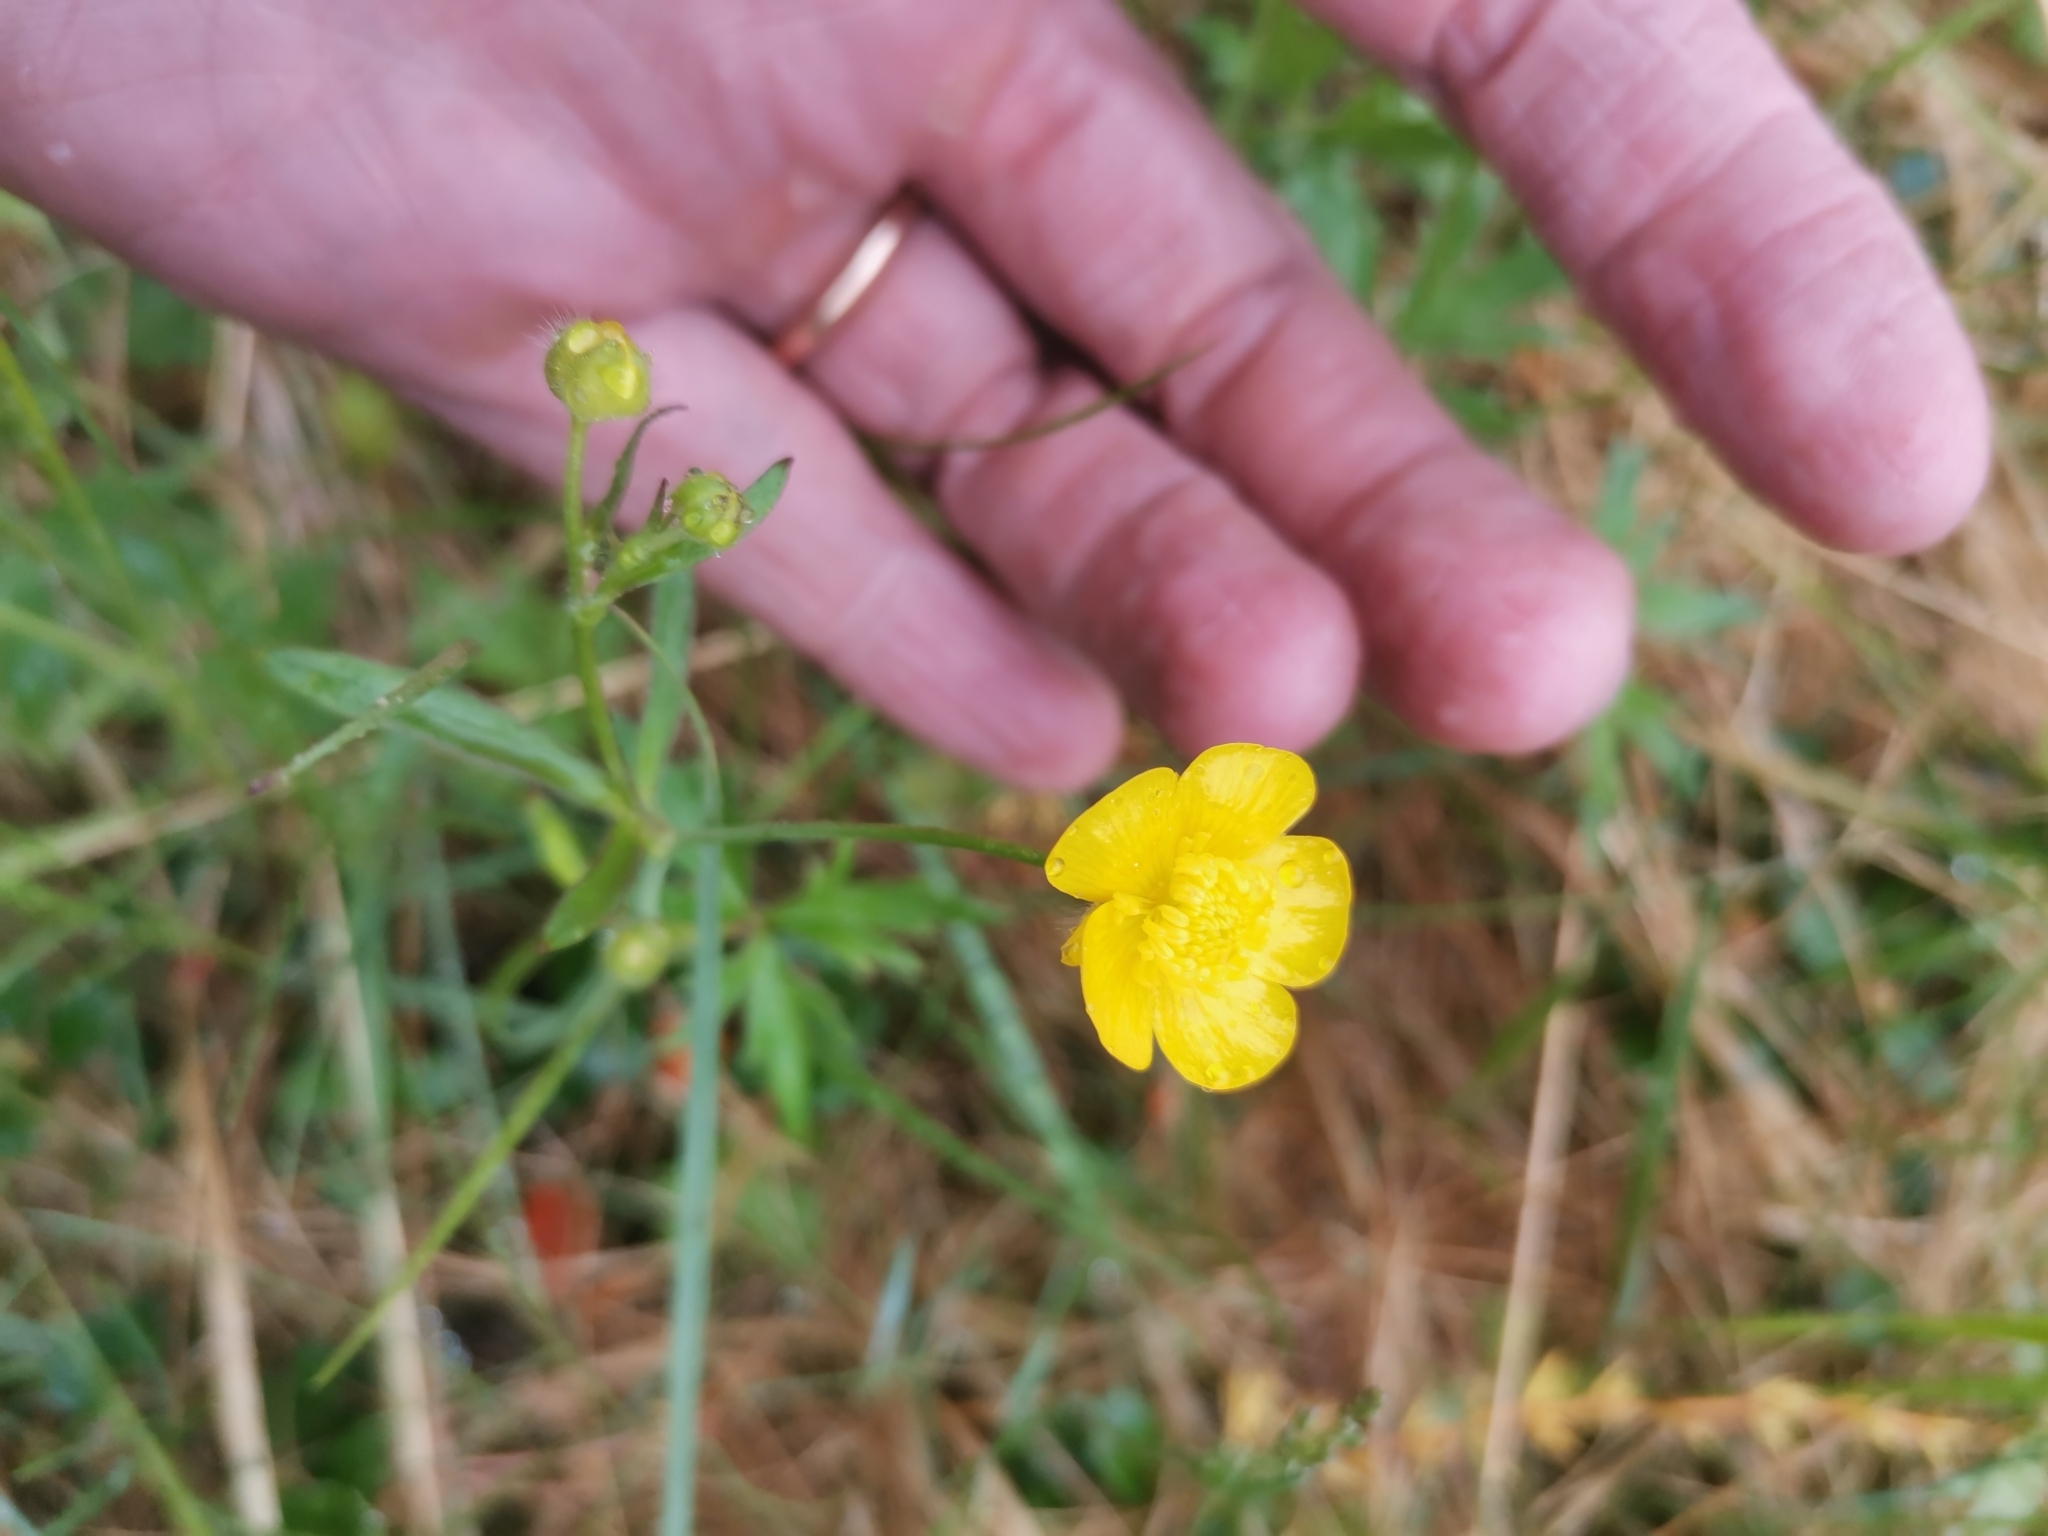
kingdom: Plantae
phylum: Tracheophyta
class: Magnoliopsida
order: Ranunculales
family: Ranunculaceae
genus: Ranunculus
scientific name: Ranunculus acris
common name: Meadow buttercup
